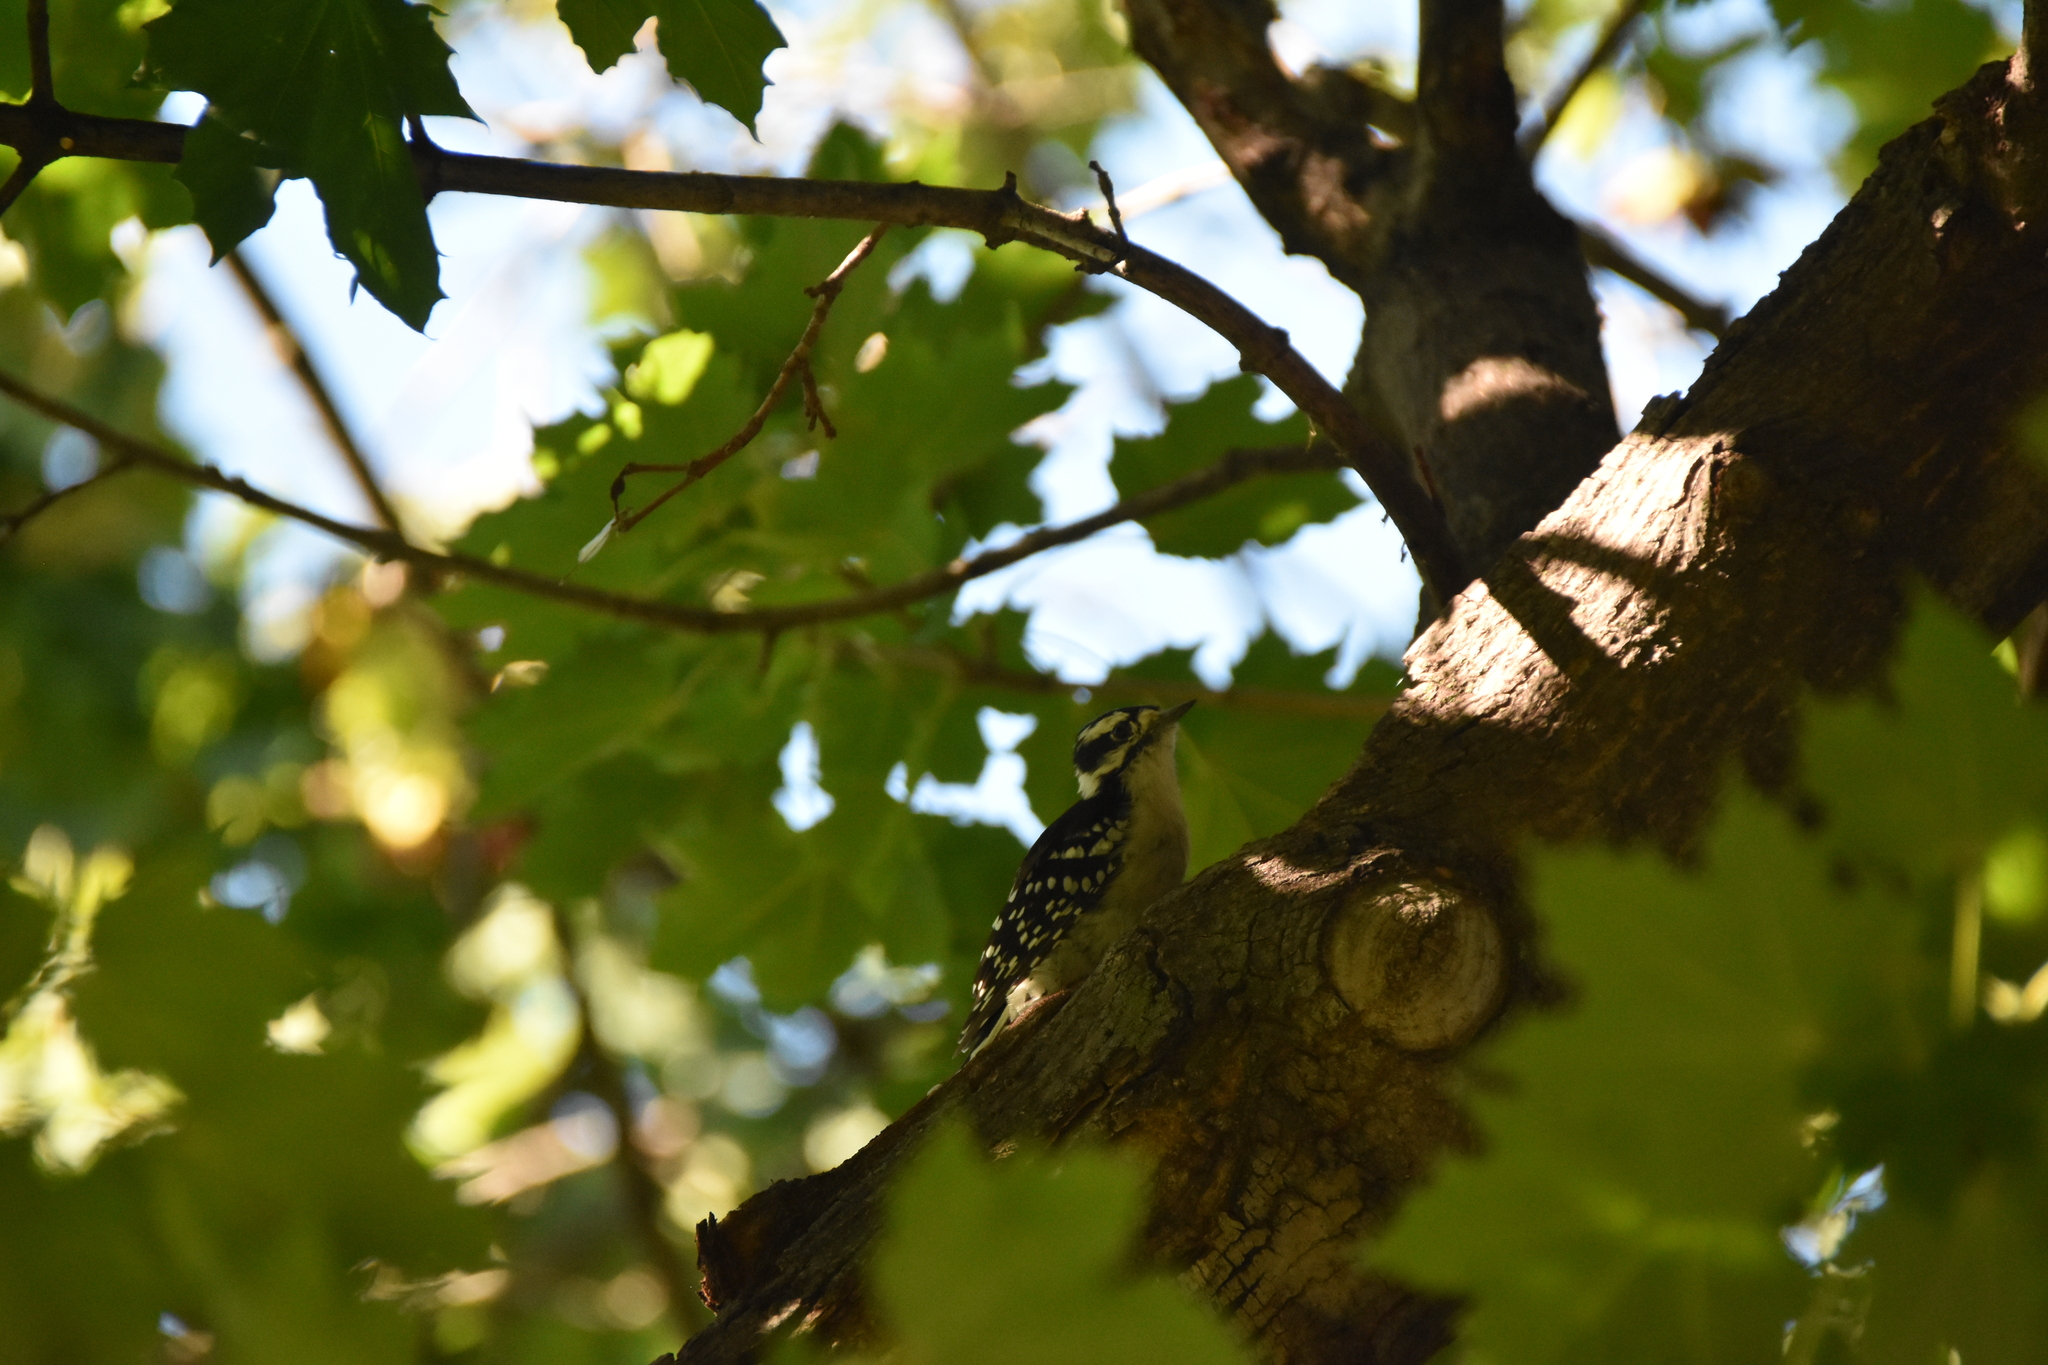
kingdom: Animalia
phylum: Chordata
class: Aves
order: Piciformes
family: Picidae
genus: Dryobates
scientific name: Dryobates pubescens
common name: Downy woodpecker
